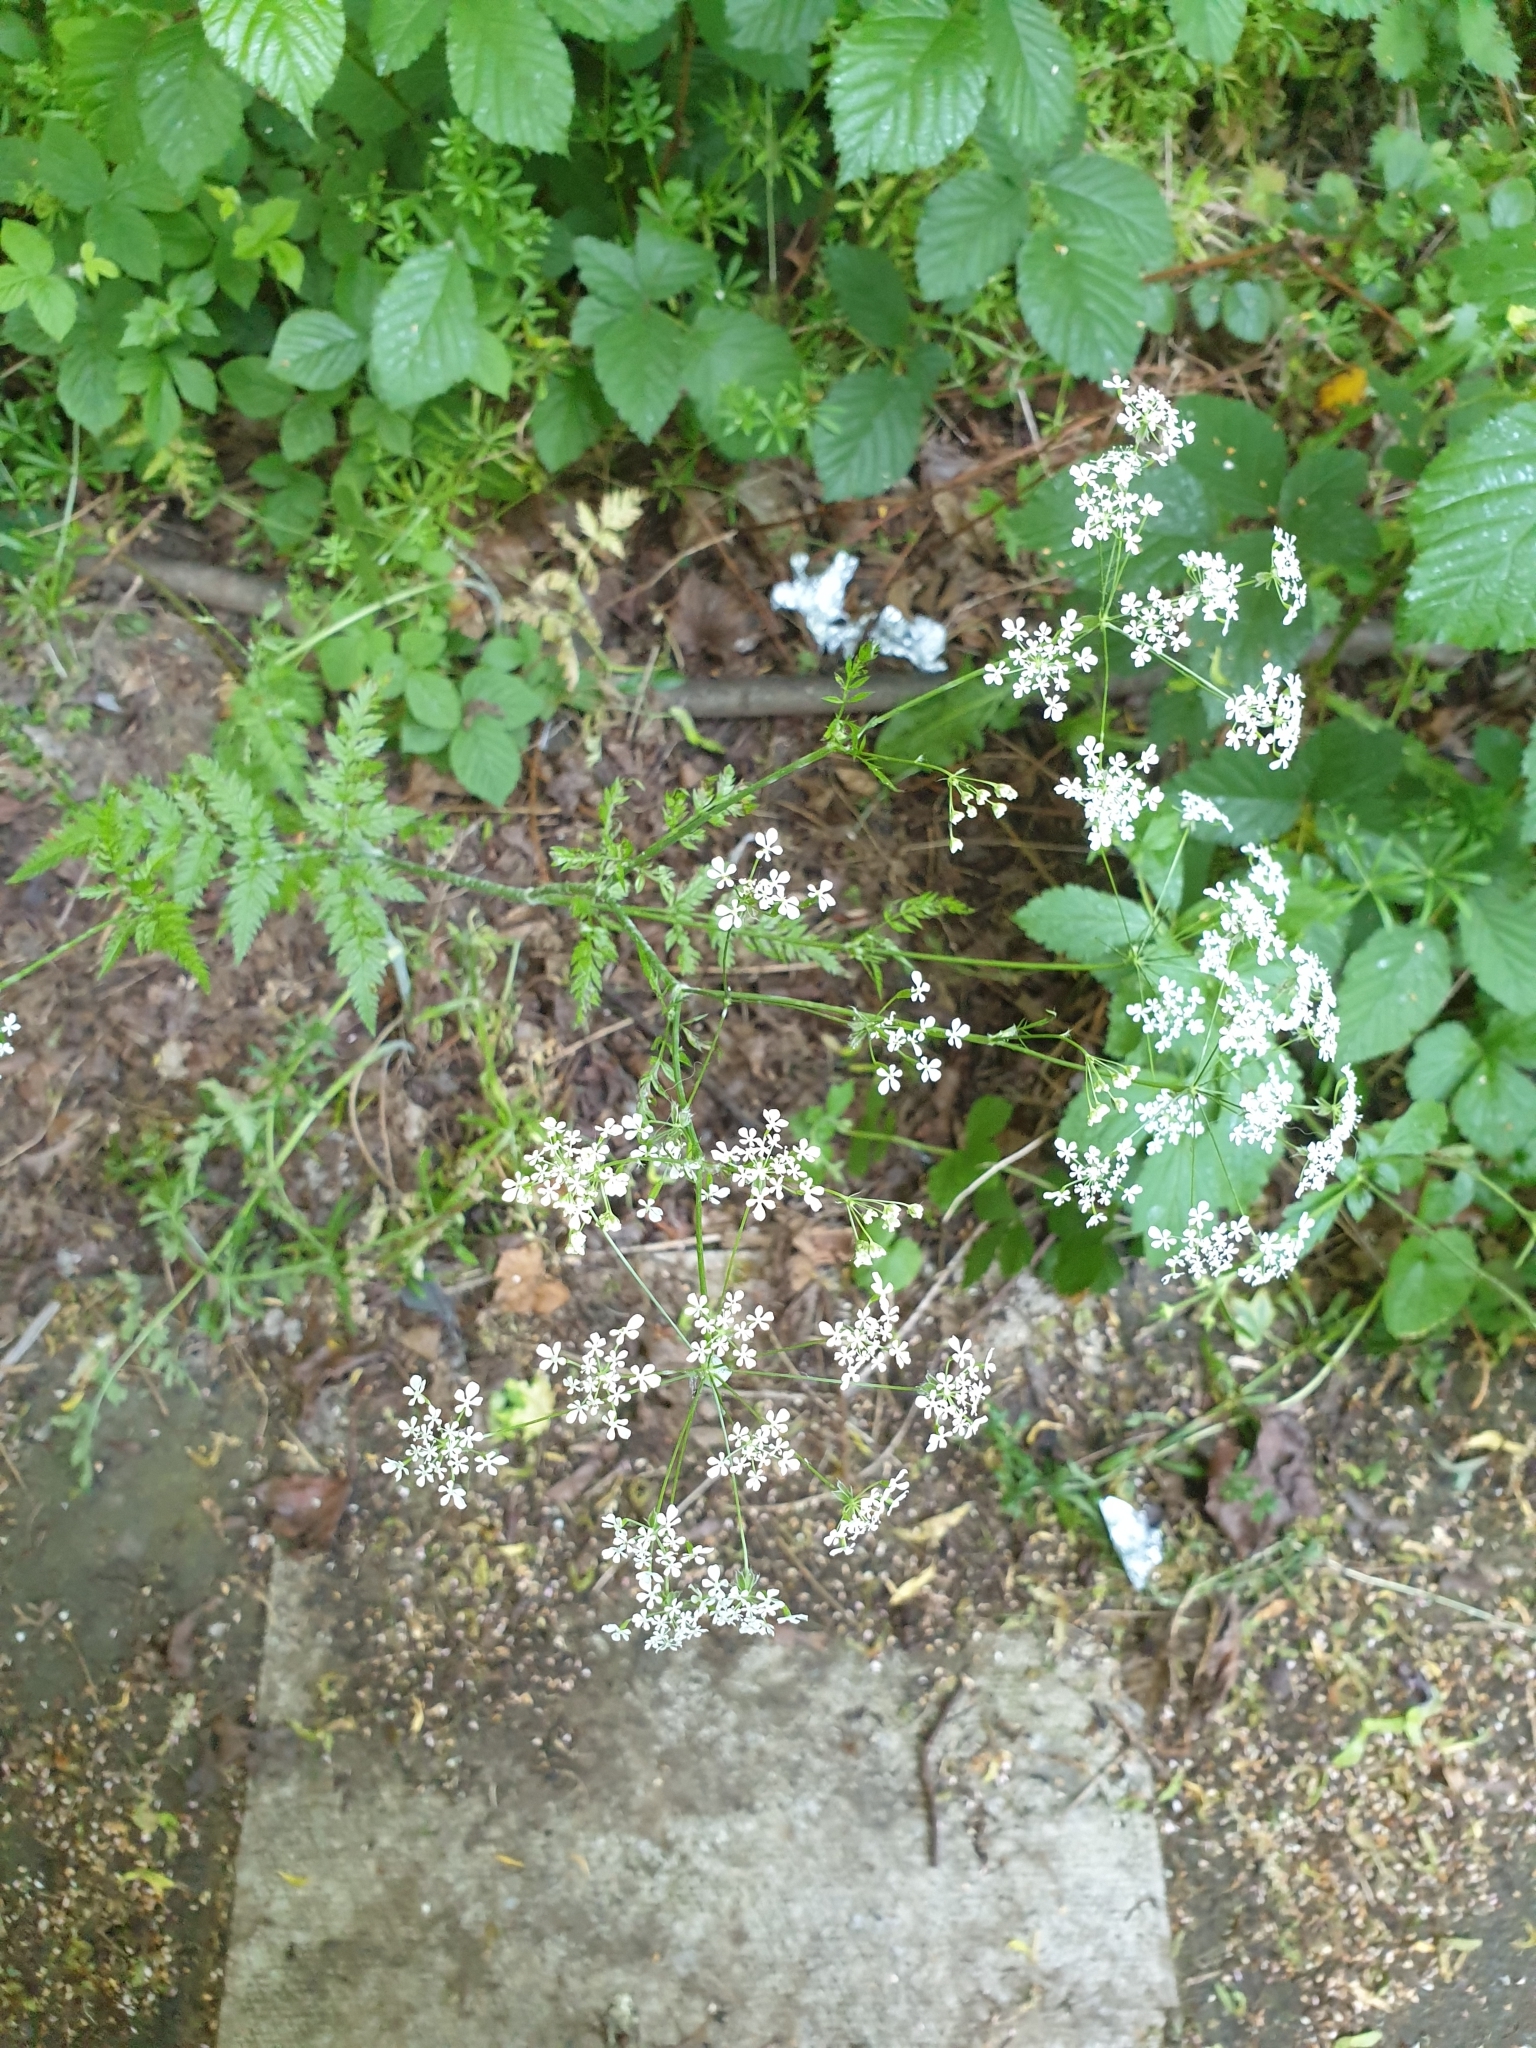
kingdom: Plantae
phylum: Tracheophyta
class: Magnoliopsida
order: Apiales
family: Apiaceae
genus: Anthriscus
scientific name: Anthriscus sylvestris
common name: Cow parsley
